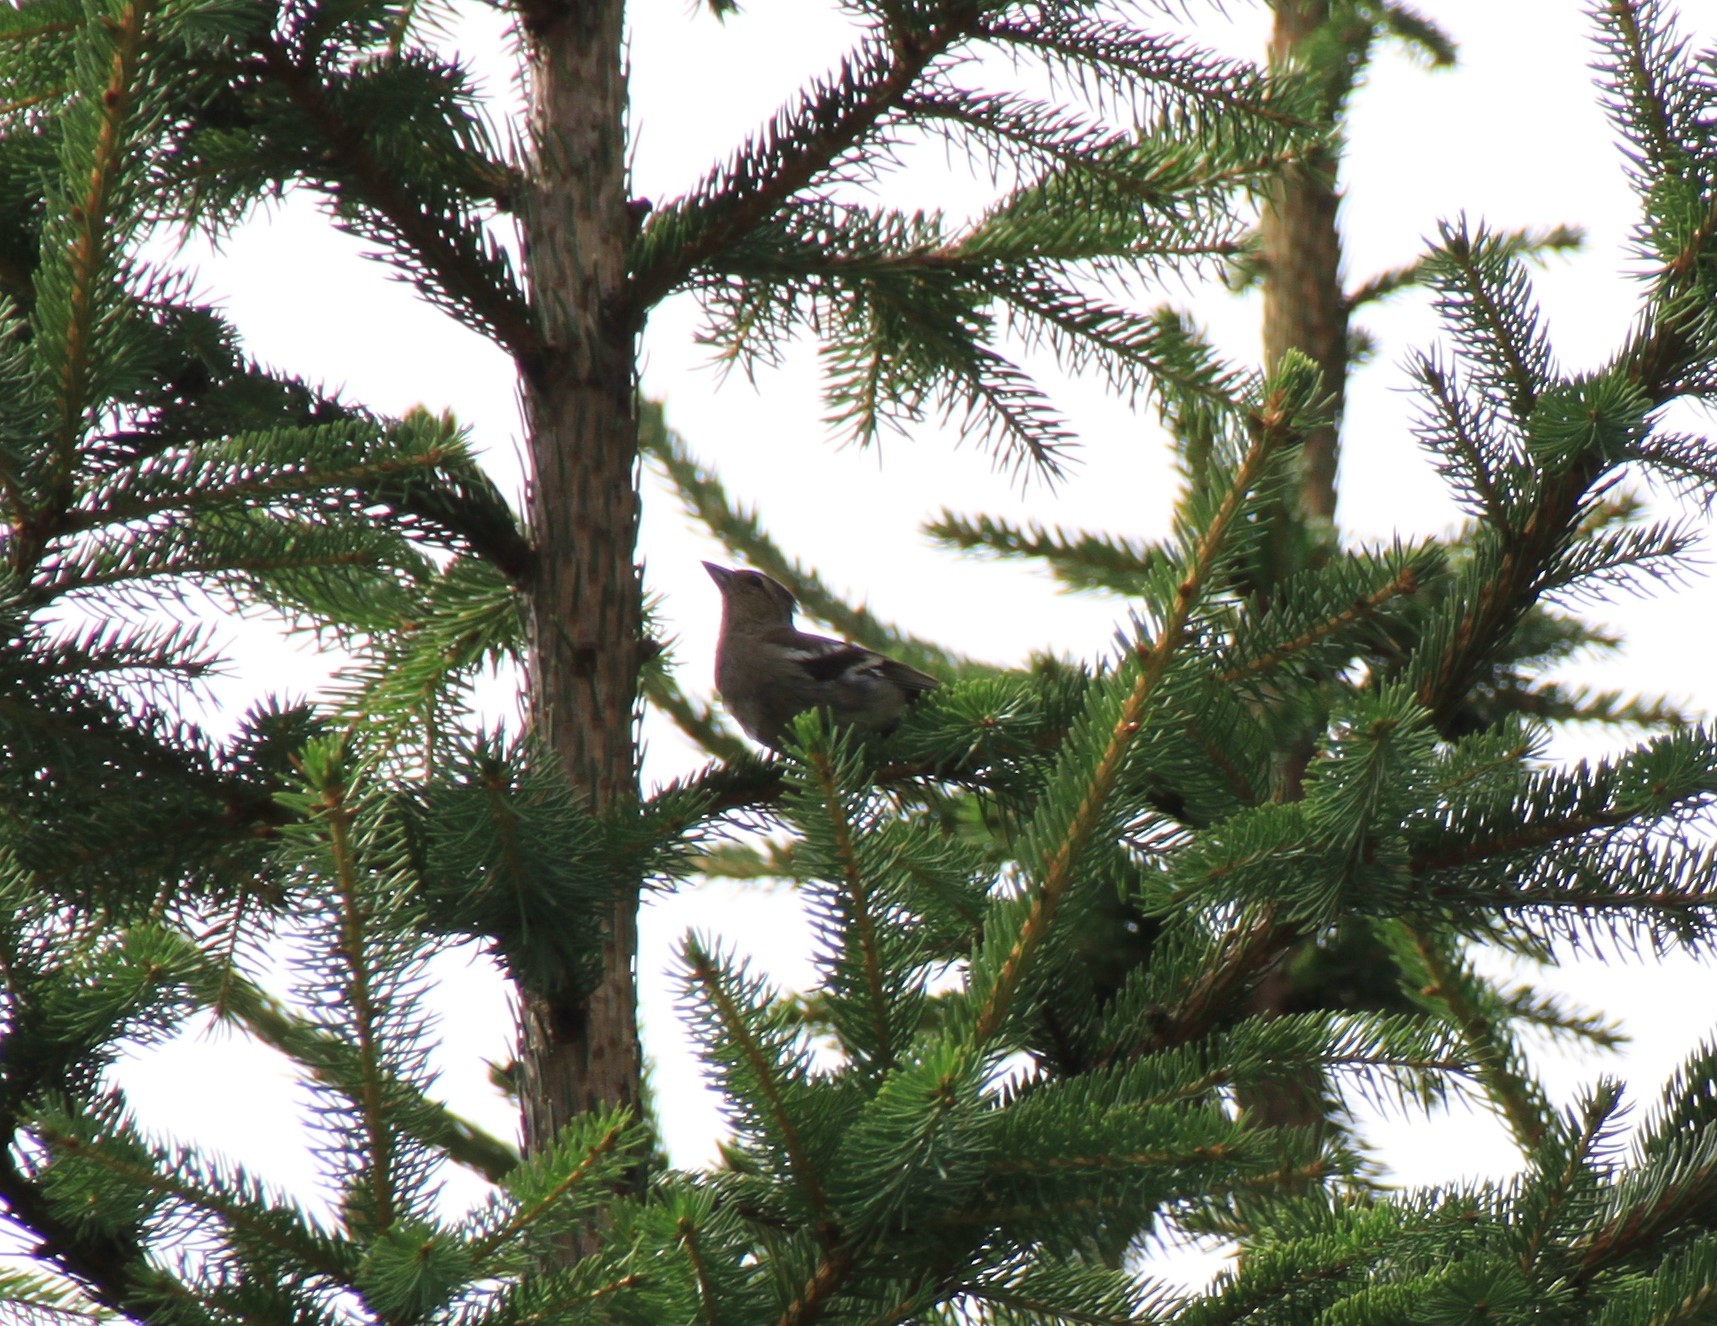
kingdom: Animalia
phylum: Chordata
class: Aves
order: Passeriformes
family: Fringillidae
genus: Fringilla
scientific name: Fringilla coelebs
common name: Common chaffinch
